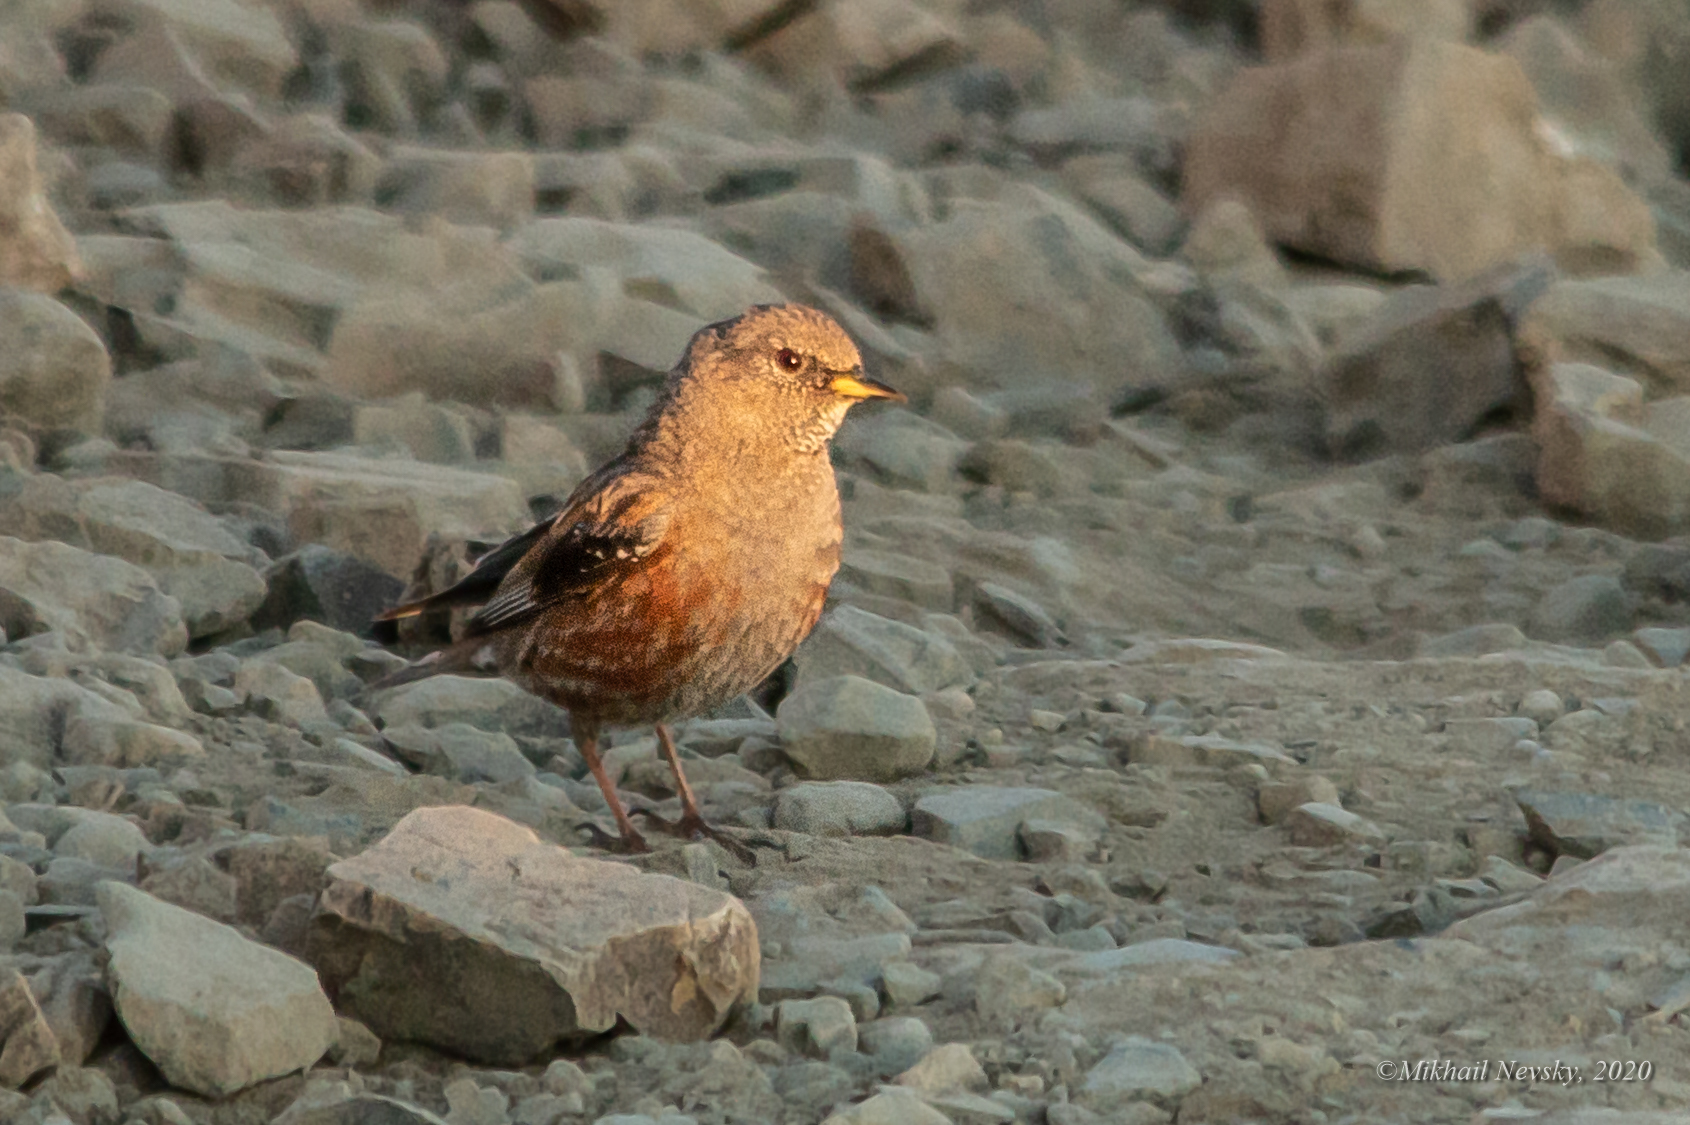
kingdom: Animalia
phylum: Chordata
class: Aves
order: Passeriformes
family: Prunellidae
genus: Prunella
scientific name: Prunella collaris
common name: Alpine accentor
